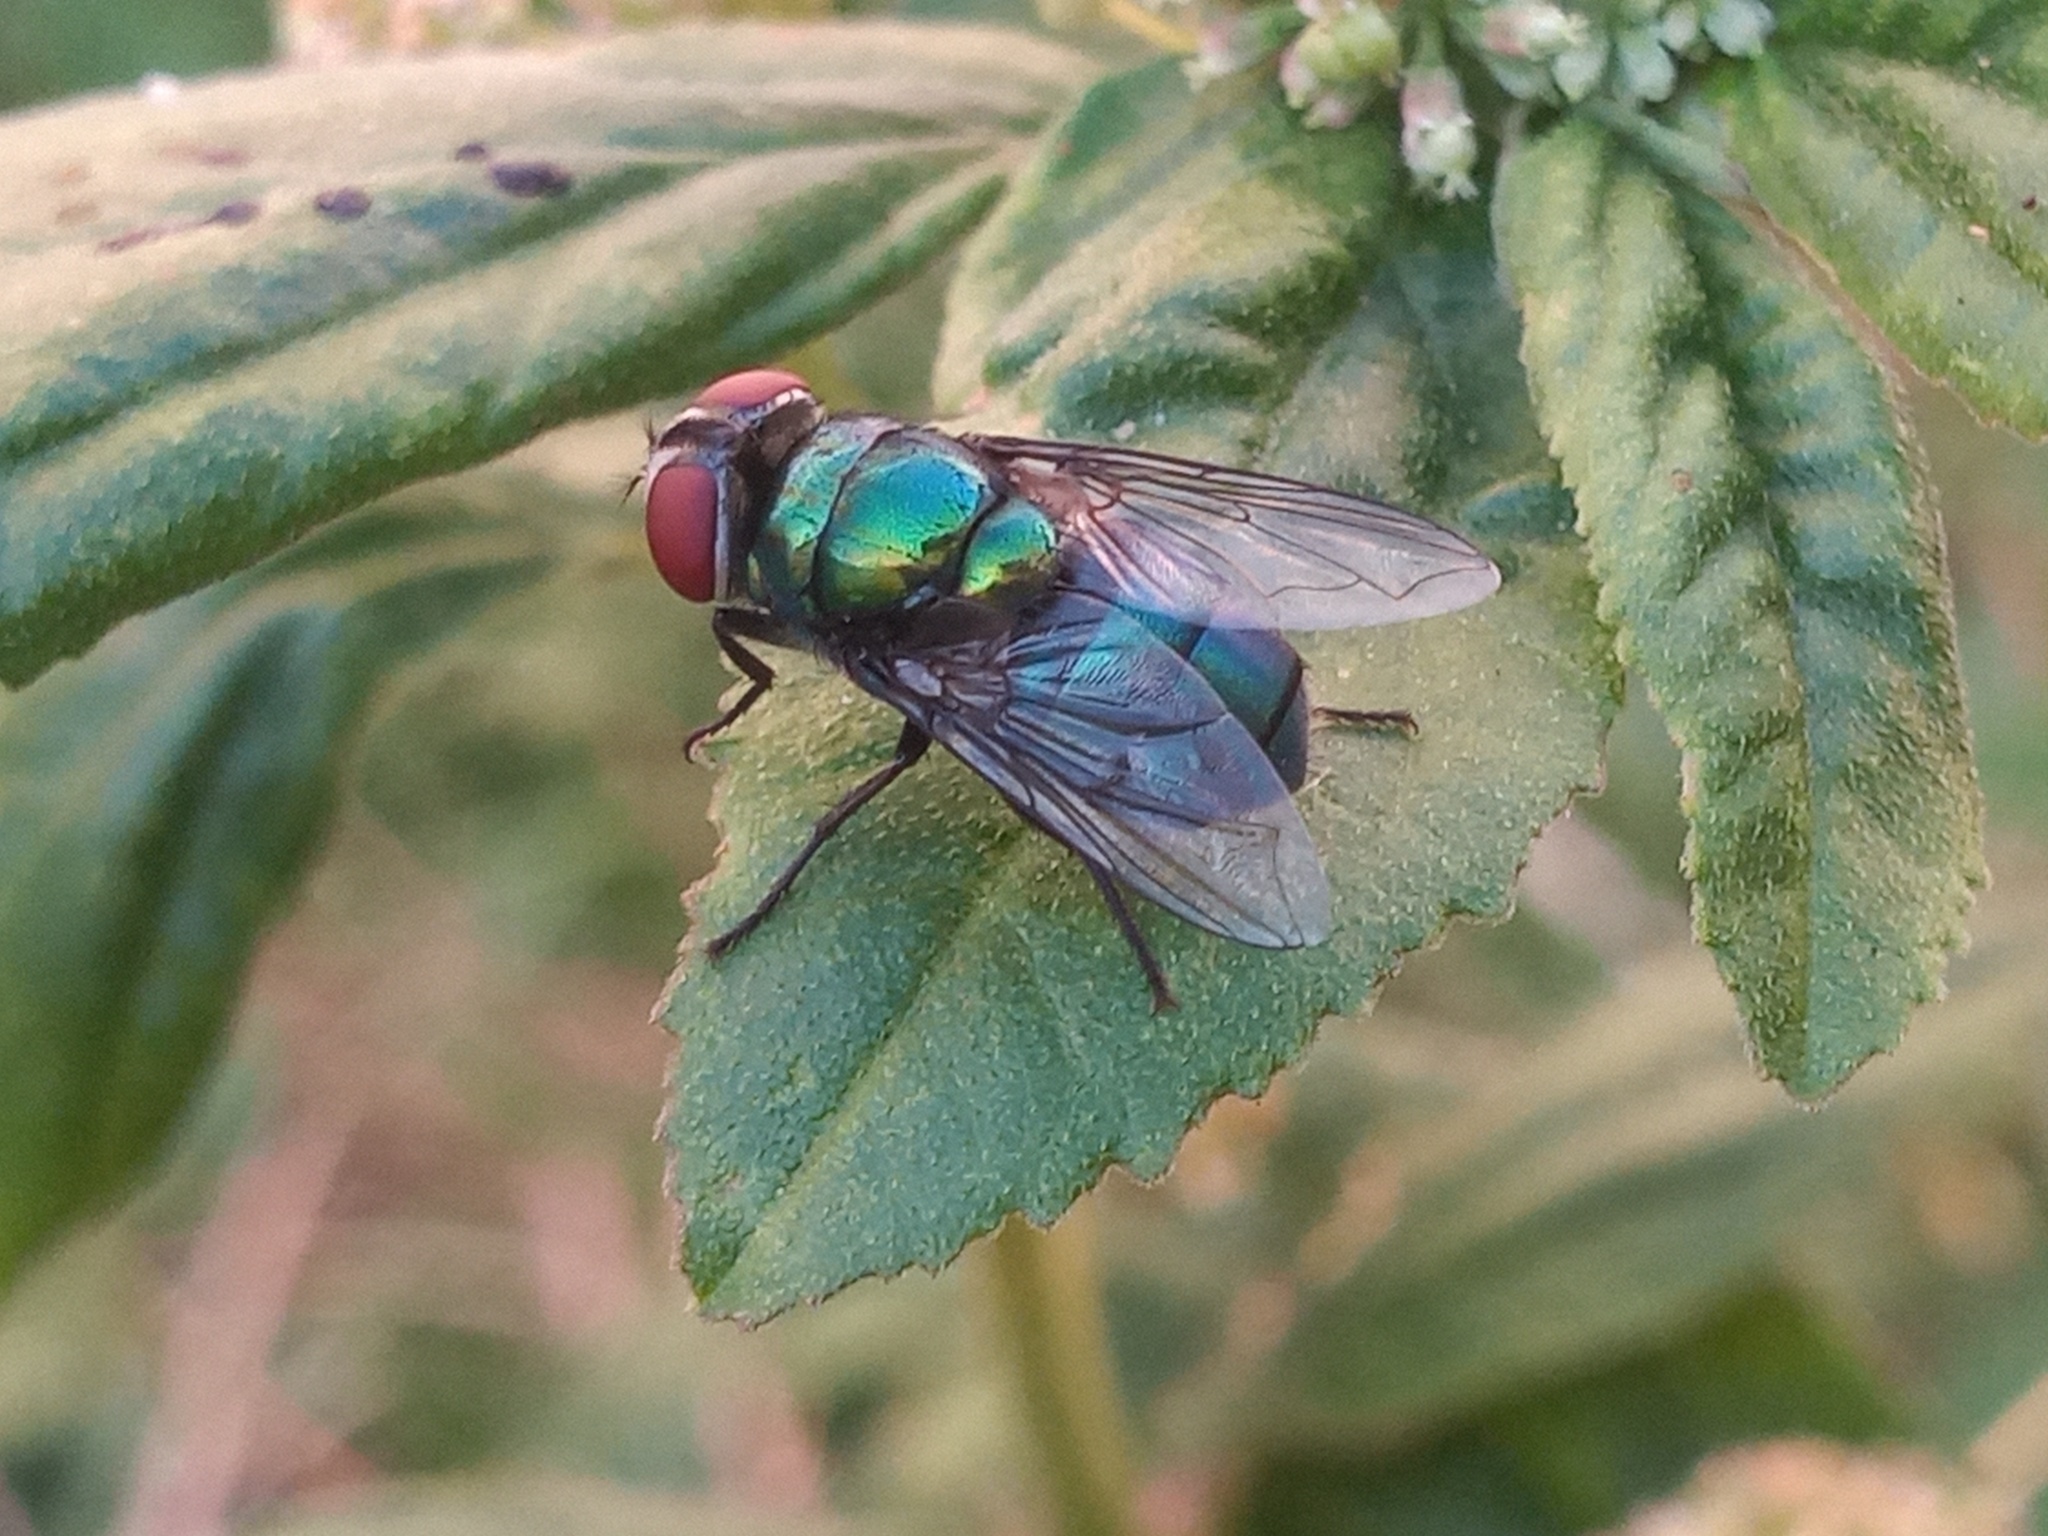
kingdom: Animalia
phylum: Arthropoda
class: Insecta
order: Diptera
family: Calliphoridae
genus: Chrysomya
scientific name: Chrysomya rufifacies
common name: Blow fly
